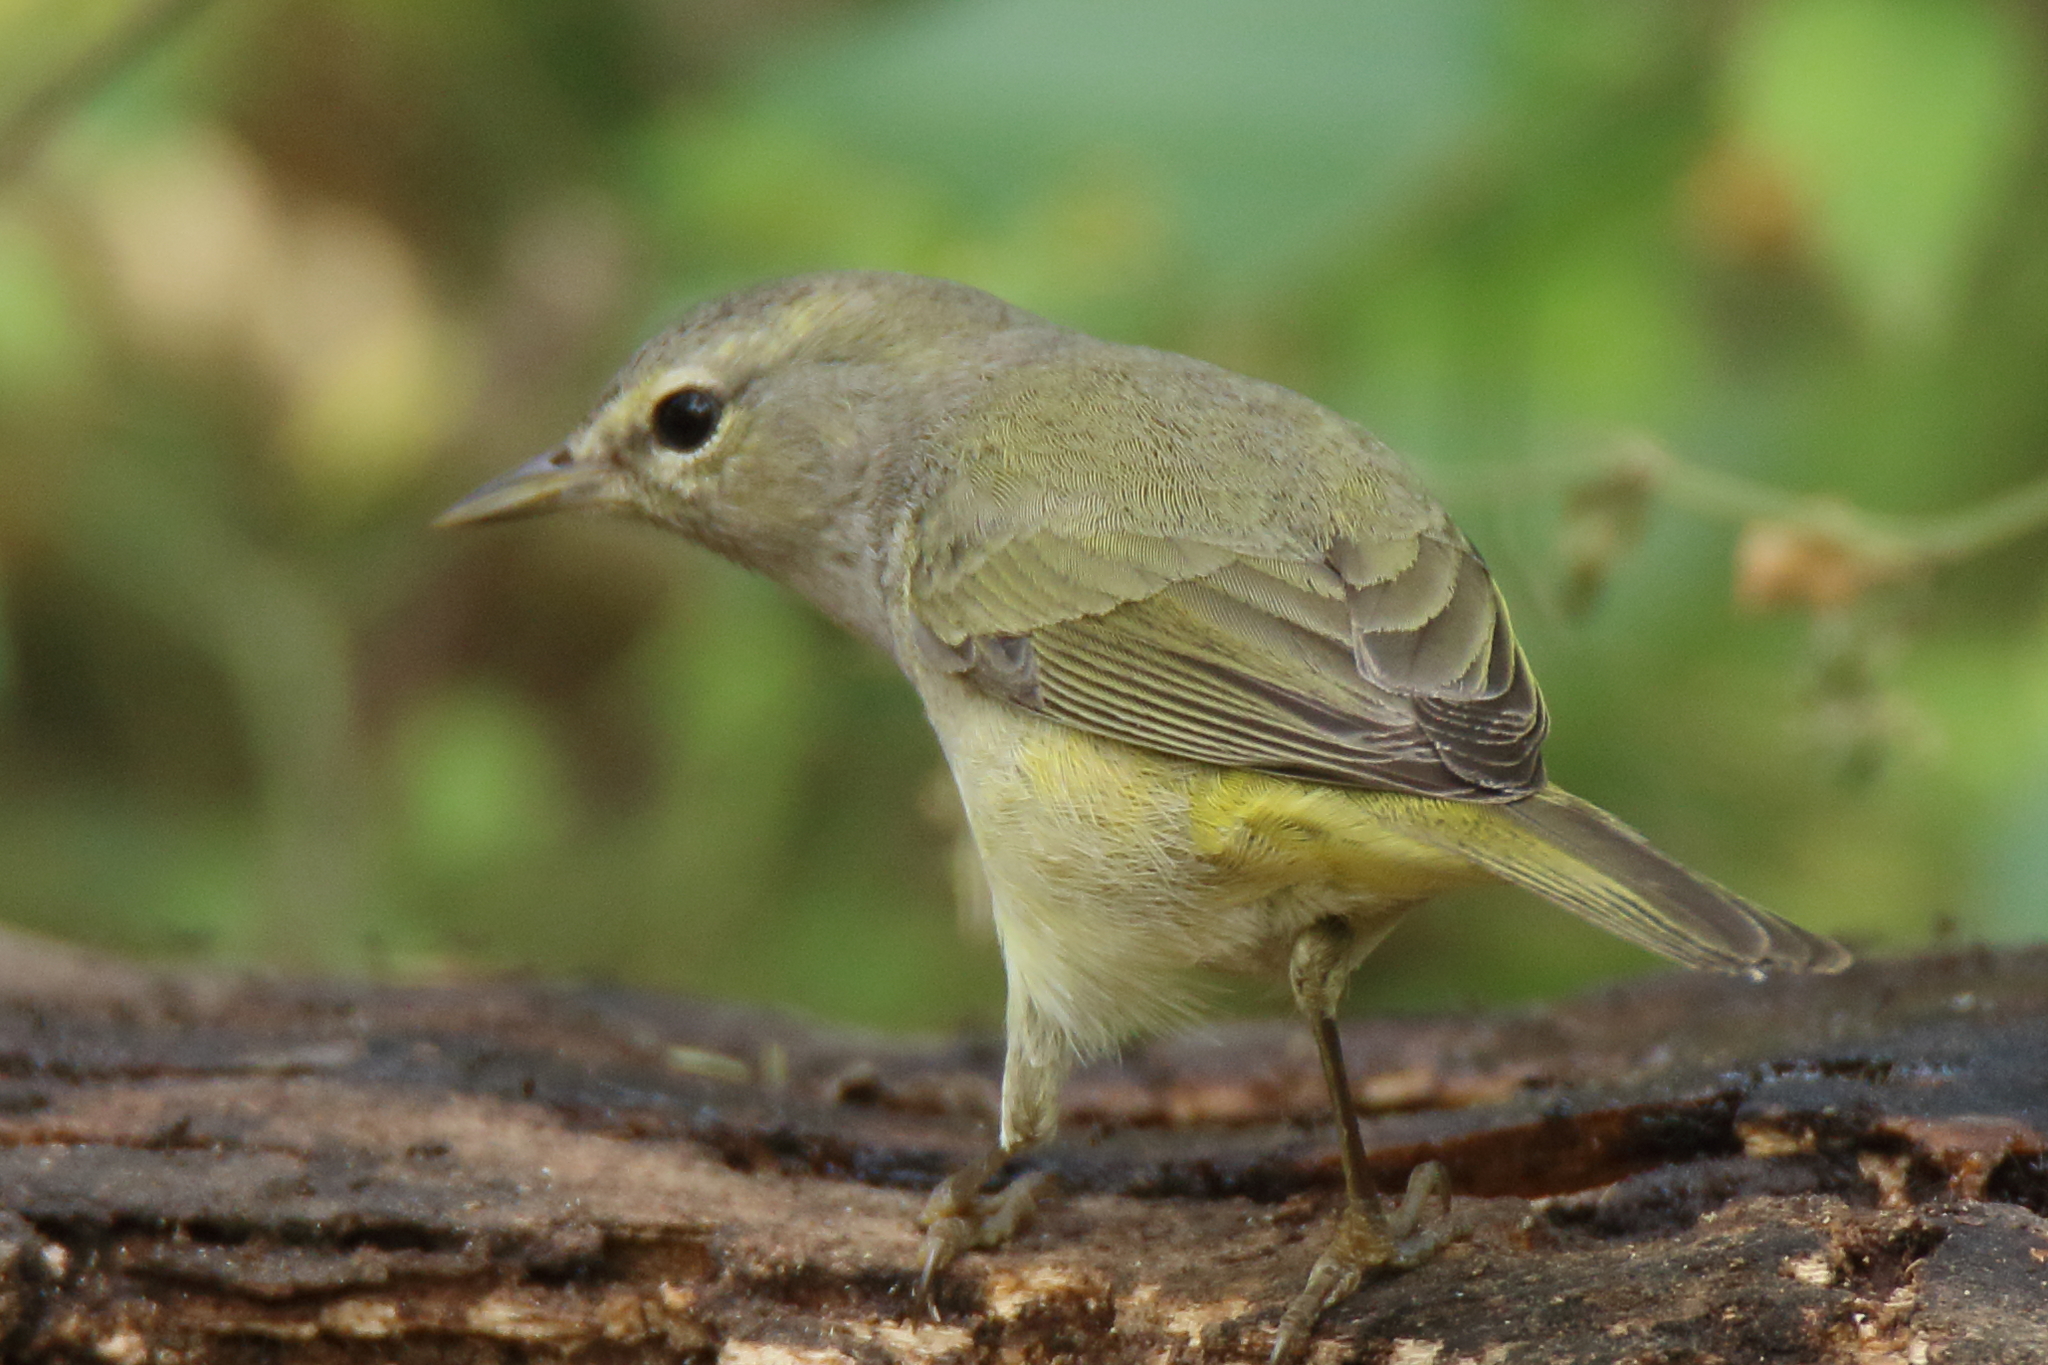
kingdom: Animalia
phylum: Chordata
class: Aves
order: Passeriformes
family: Parulidae
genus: Leiothlypis
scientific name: Leiothlypis celata
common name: Orange-crowned warbler
